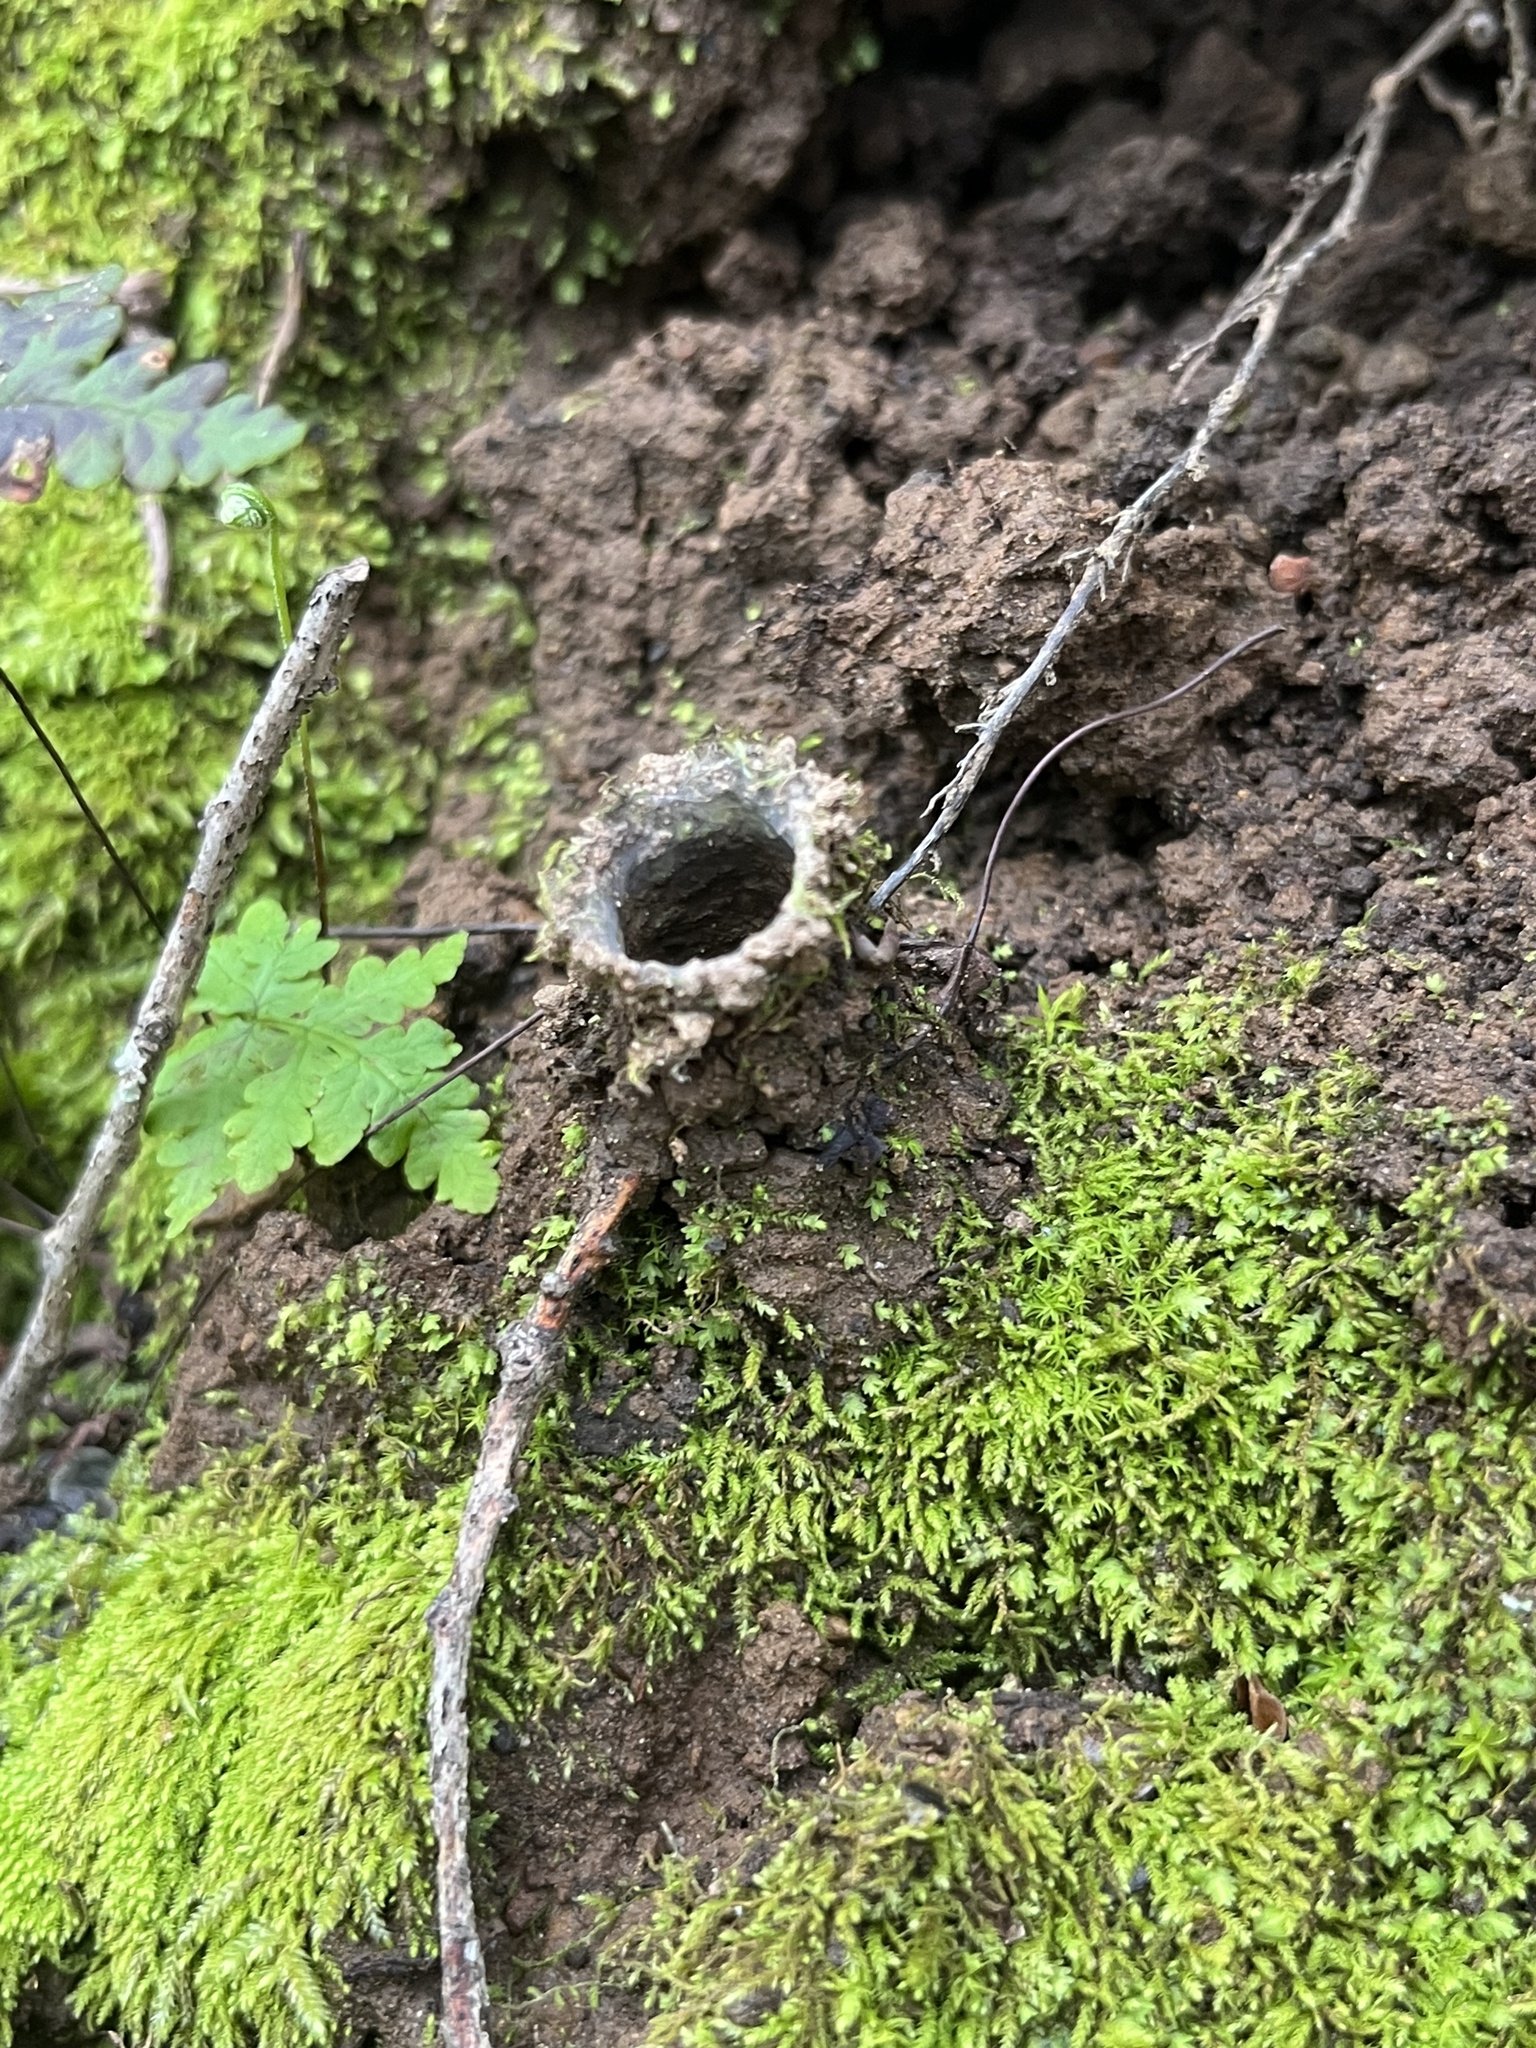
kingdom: Animalia
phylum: Arthropoda
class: Arachnida
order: Araneae
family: Antrodiaetidae
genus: Atypoides
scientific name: Atypoides riversi
